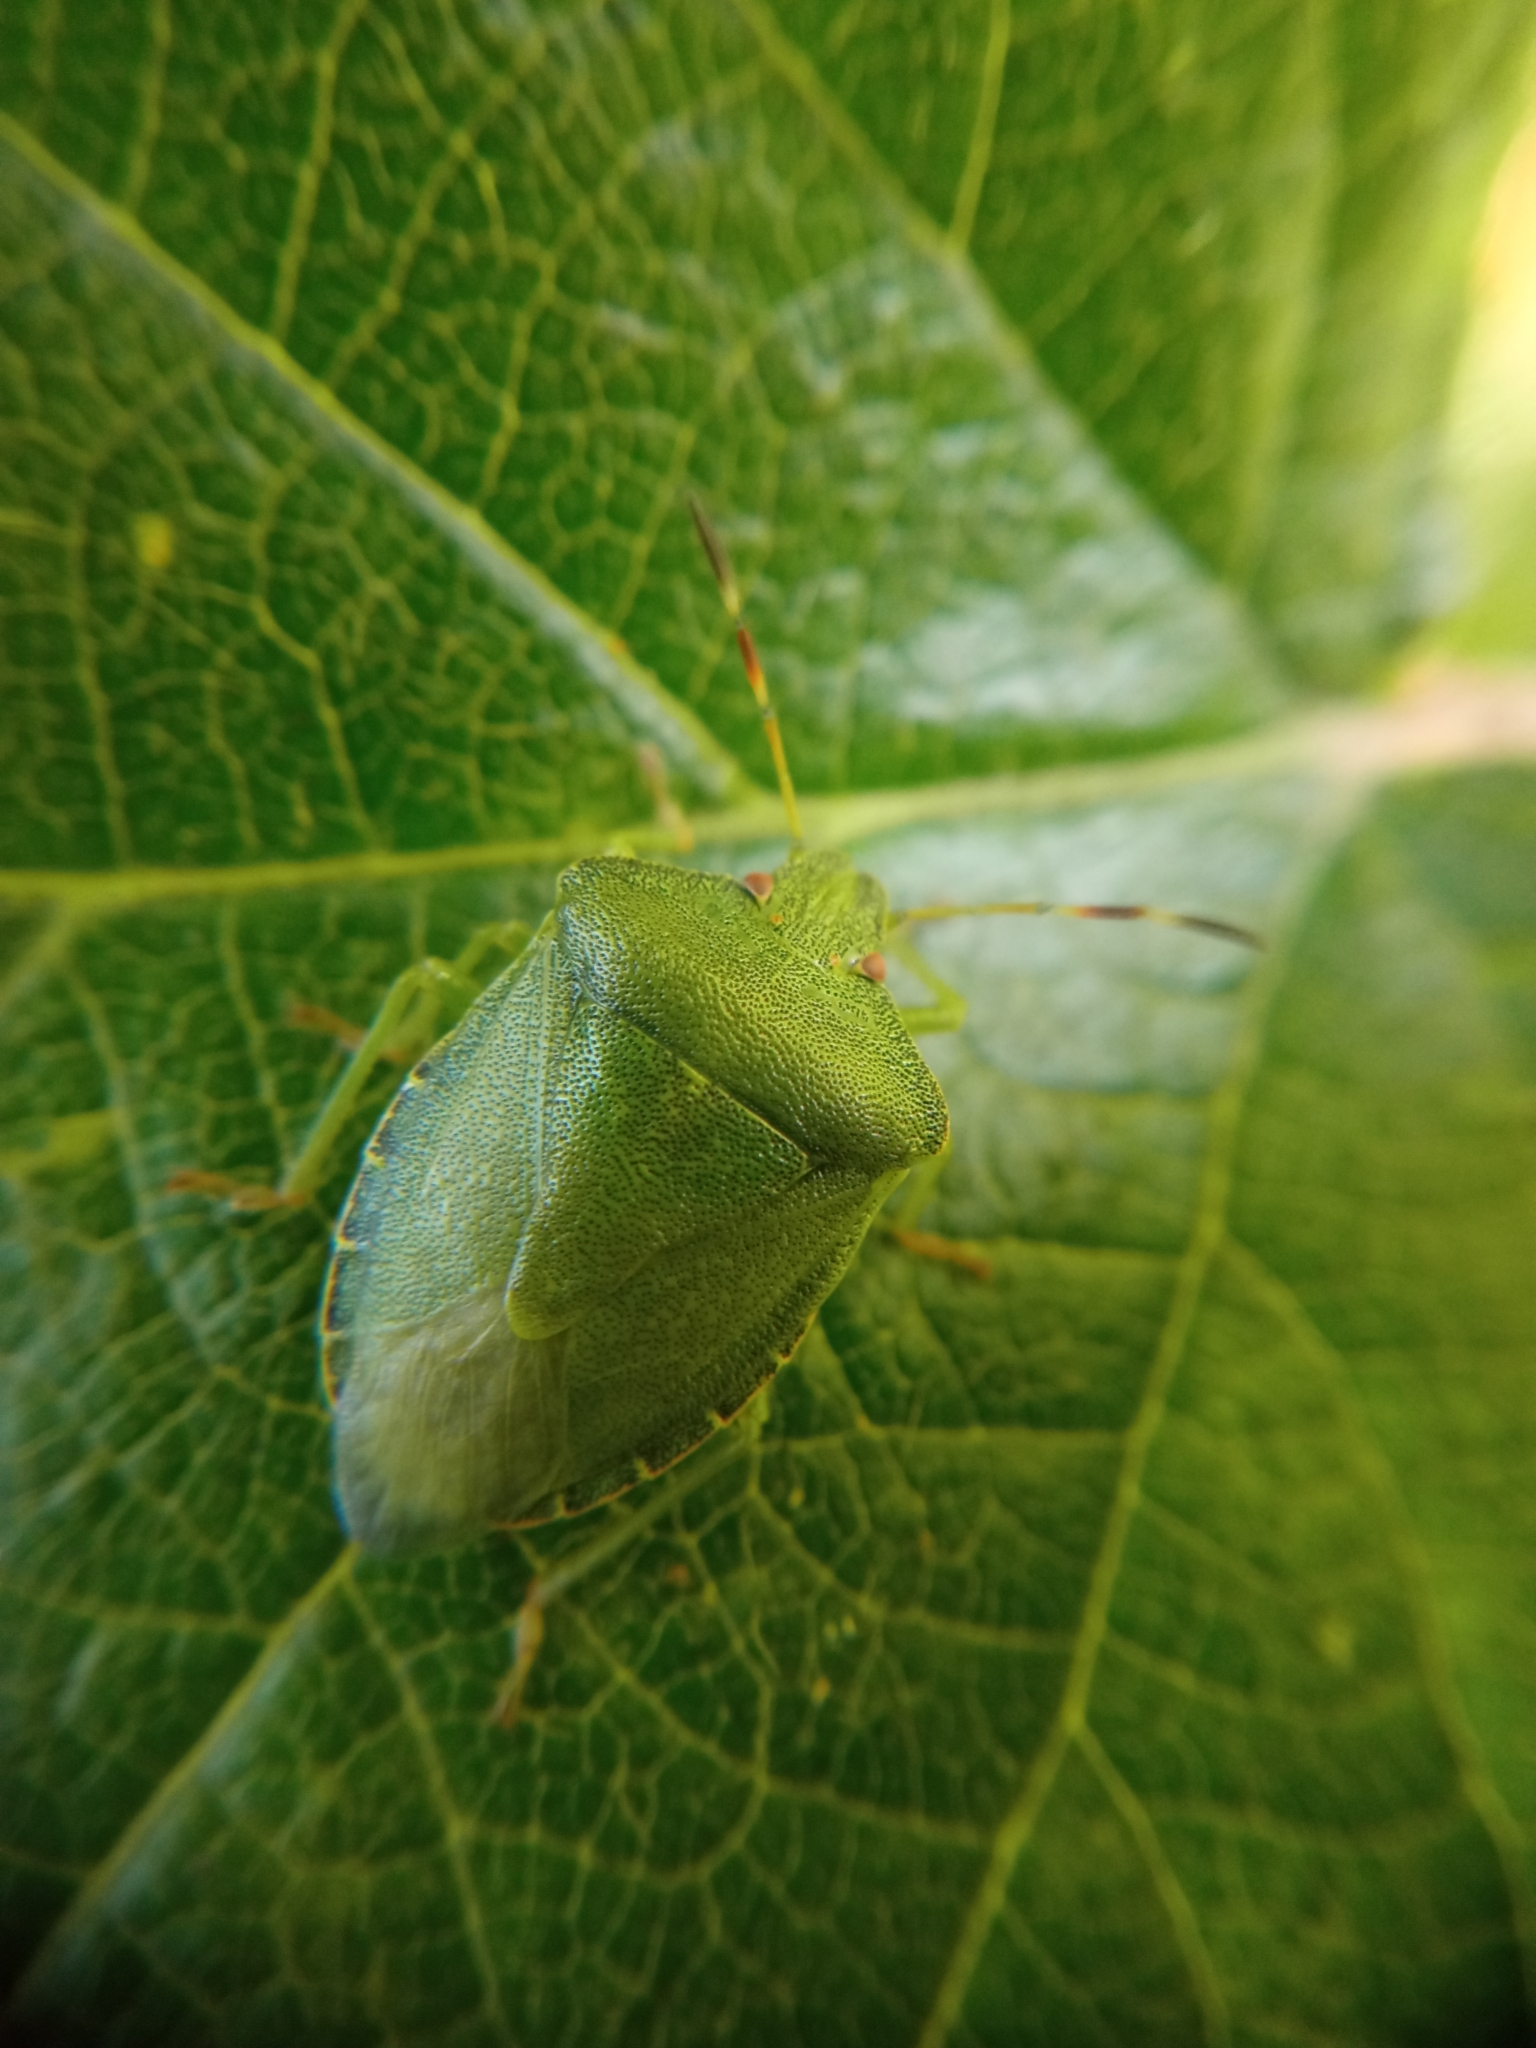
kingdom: Animalia
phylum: Arthropoda
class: Insecta
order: Hemiptera
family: Pentatomidae
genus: Palomena
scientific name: Palomena prasina
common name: Green shieldbug
